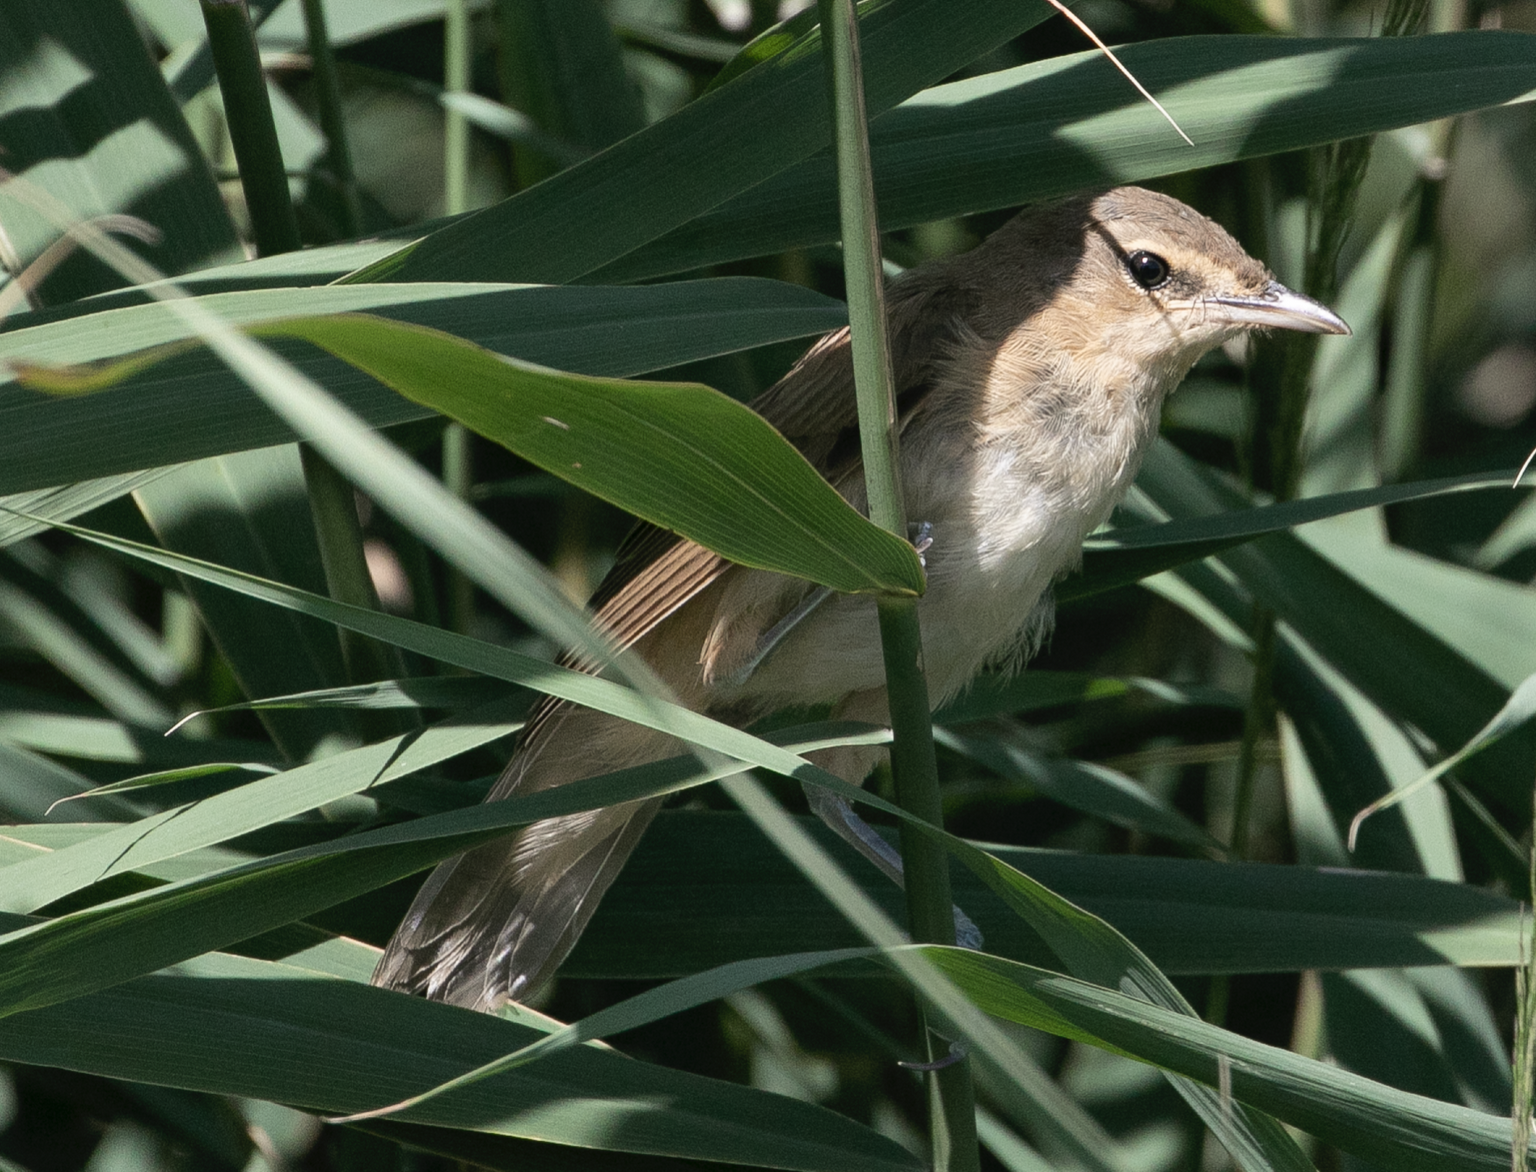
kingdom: Animalia
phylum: Chordata
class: Aves
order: Passeriformes
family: Acrocephalidae
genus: Acrocephalus
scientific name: Acrocephalus arundinaceus
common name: Great reed warbler
